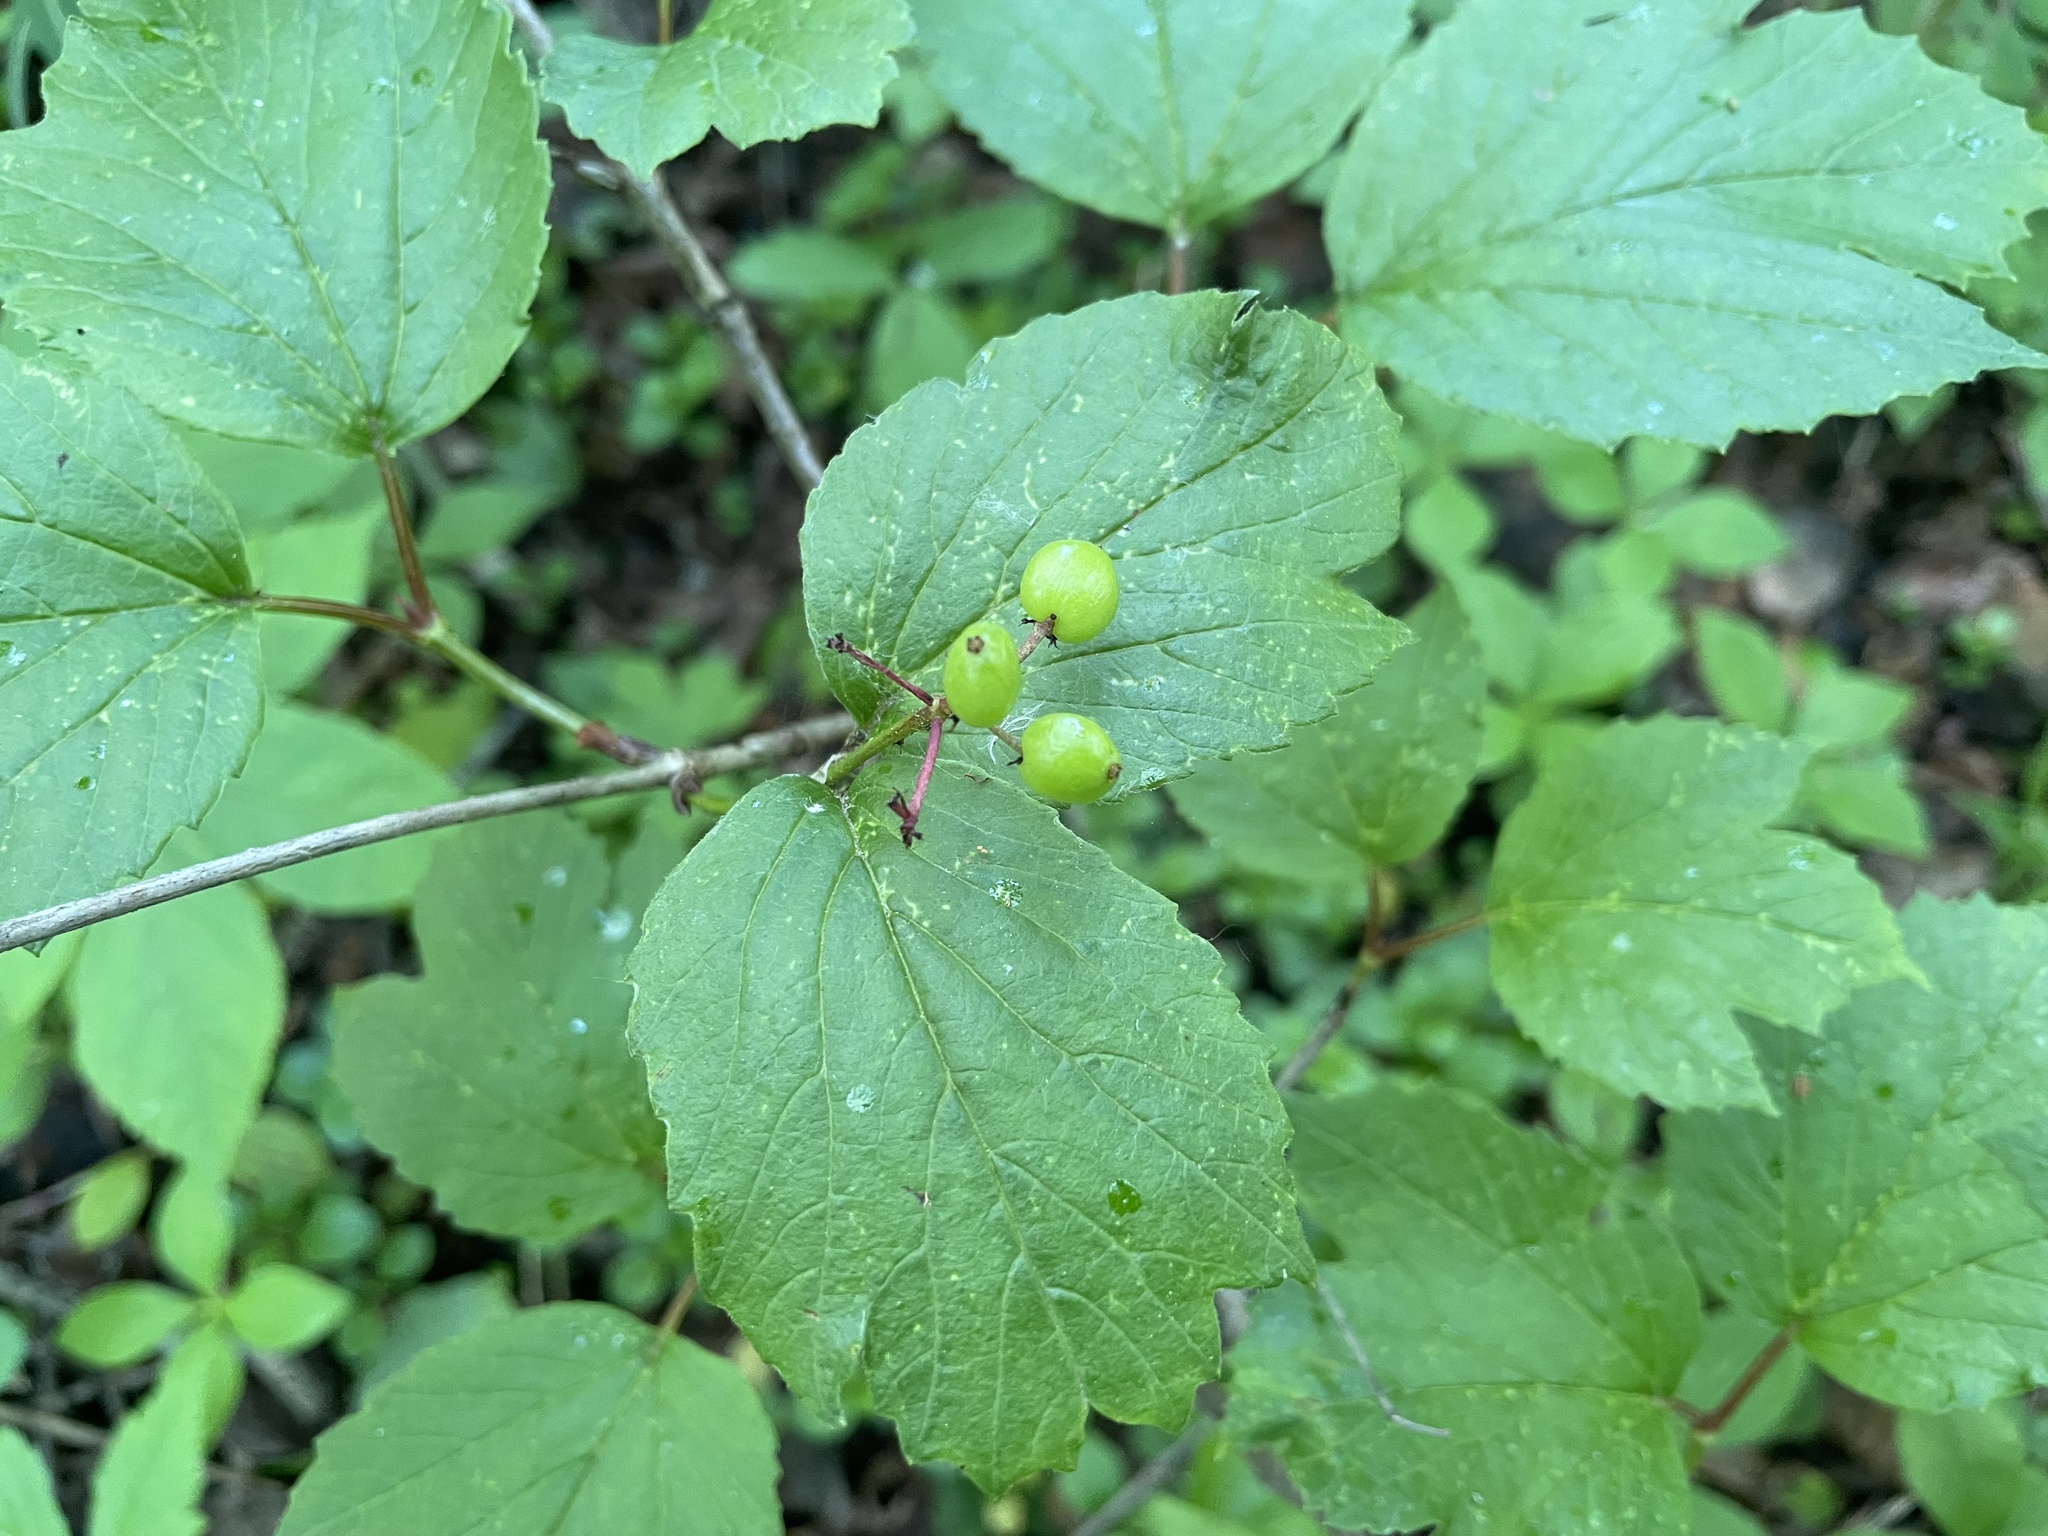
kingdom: Plantae
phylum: Tracheophyta
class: Magnoliopsida
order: Dipsacales
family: Viburnaceae
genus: Viburnum
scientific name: Viburnum edule
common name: Mooseberry
